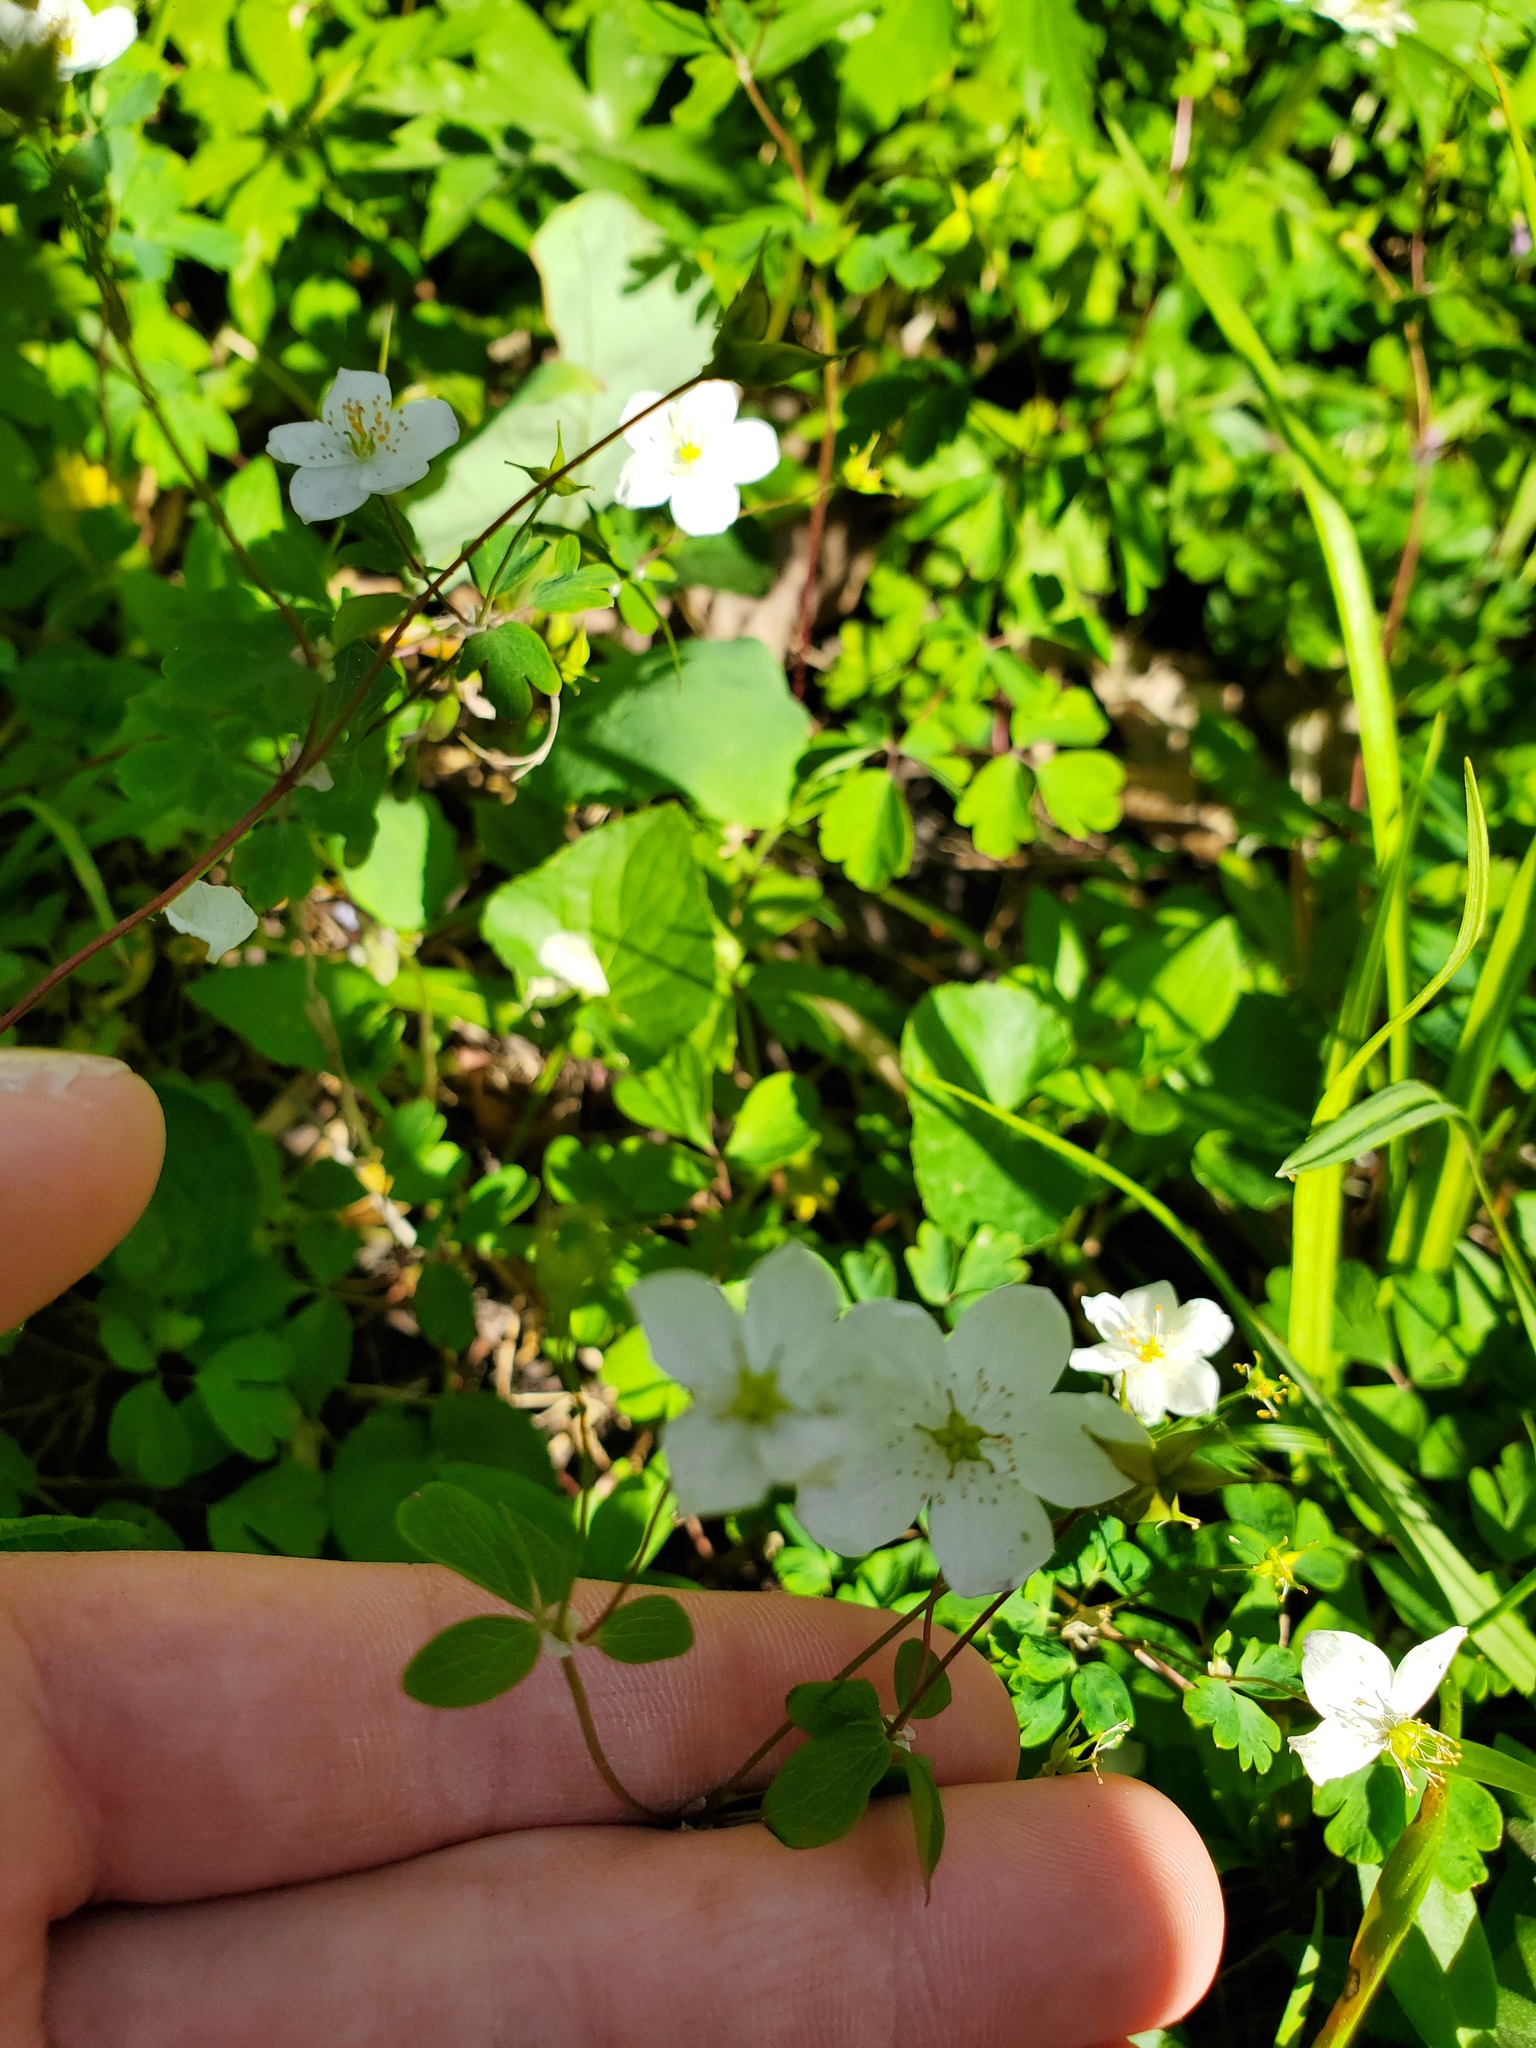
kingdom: Plantae
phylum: Tracheophyta
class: Magnoliopsida
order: Ranunculales
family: Ranunculaceae
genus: Enemion
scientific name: Enemion biternatum
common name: Eastern false rue-anemone
